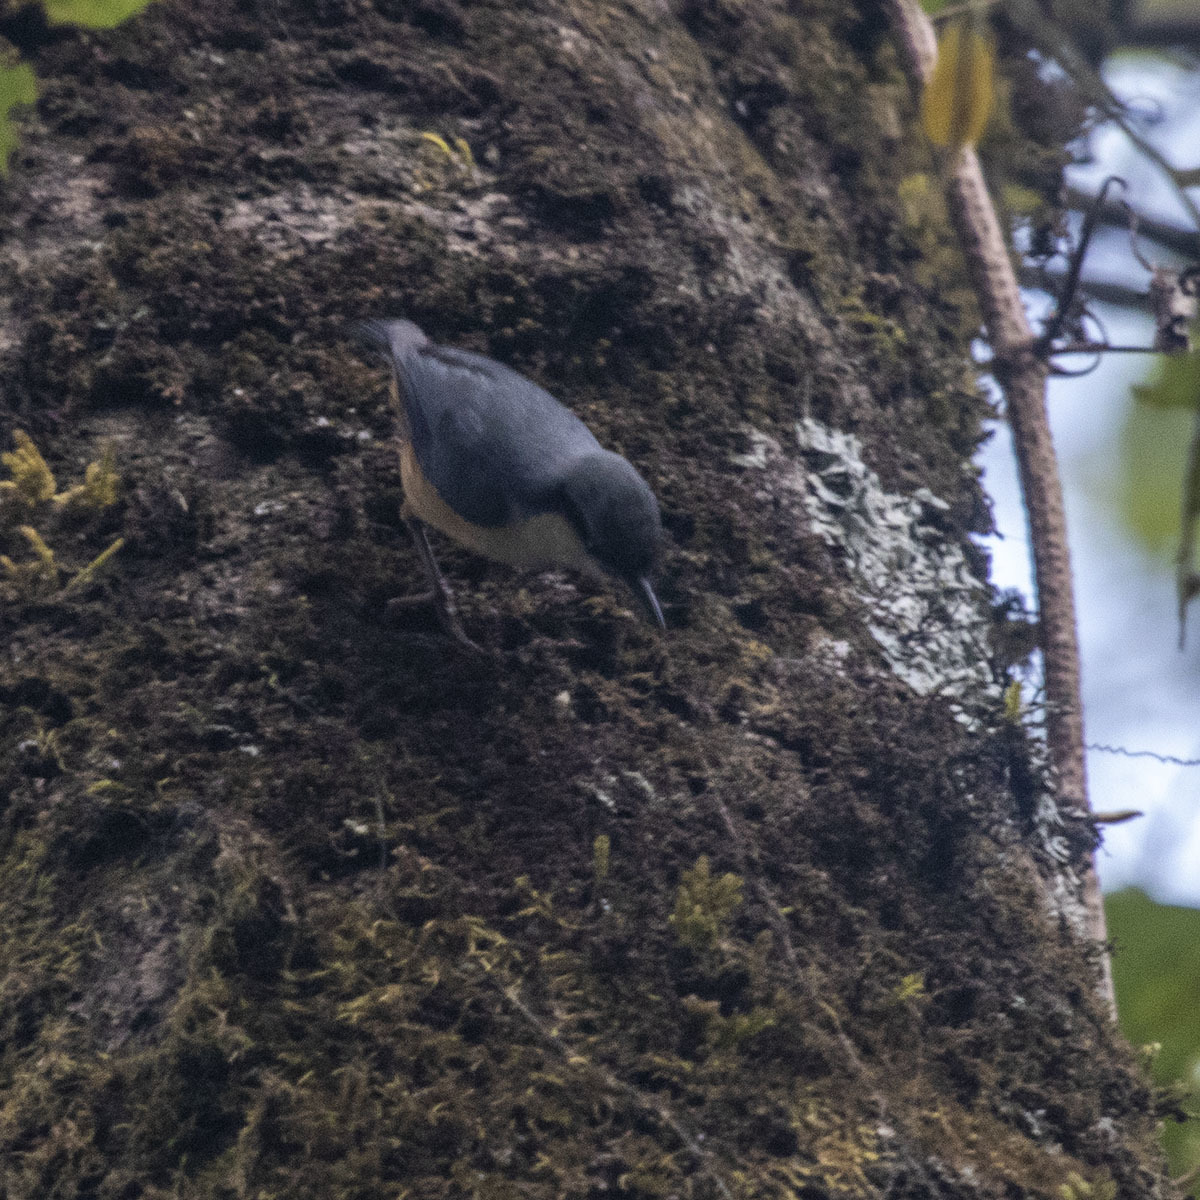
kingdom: Animalia
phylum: Chordata
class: Aves
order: Passeriformes
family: Sittidae
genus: Sitta
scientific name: Sitta himalayensis
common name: White-tailed nuthatch
